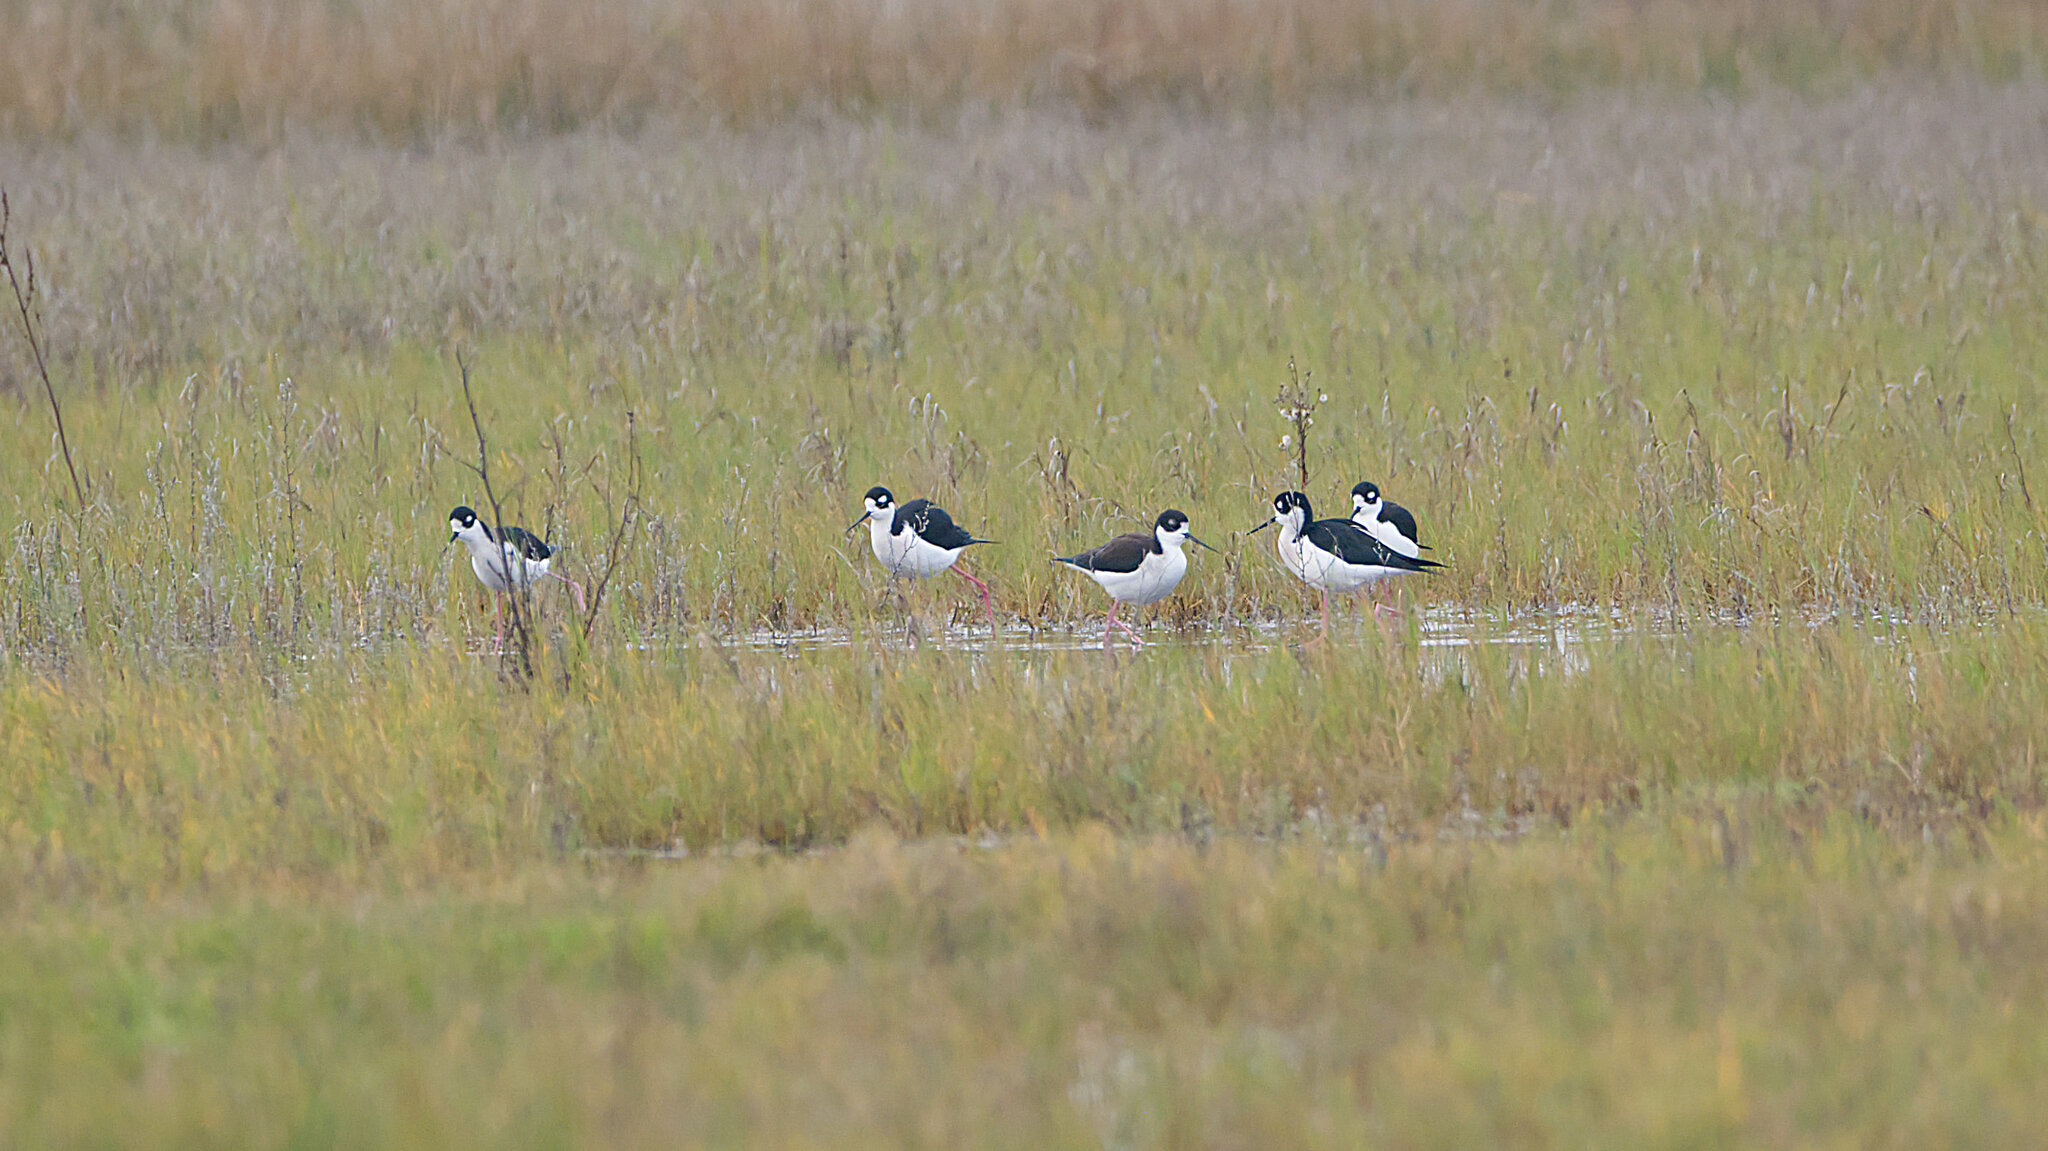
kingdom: Animalia
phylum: Chordata
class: Aves
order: Charadriiformes
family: Recurvirostridae
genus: Himantopus
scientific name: Himantopus mexicanus
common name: Black-necked stilt
